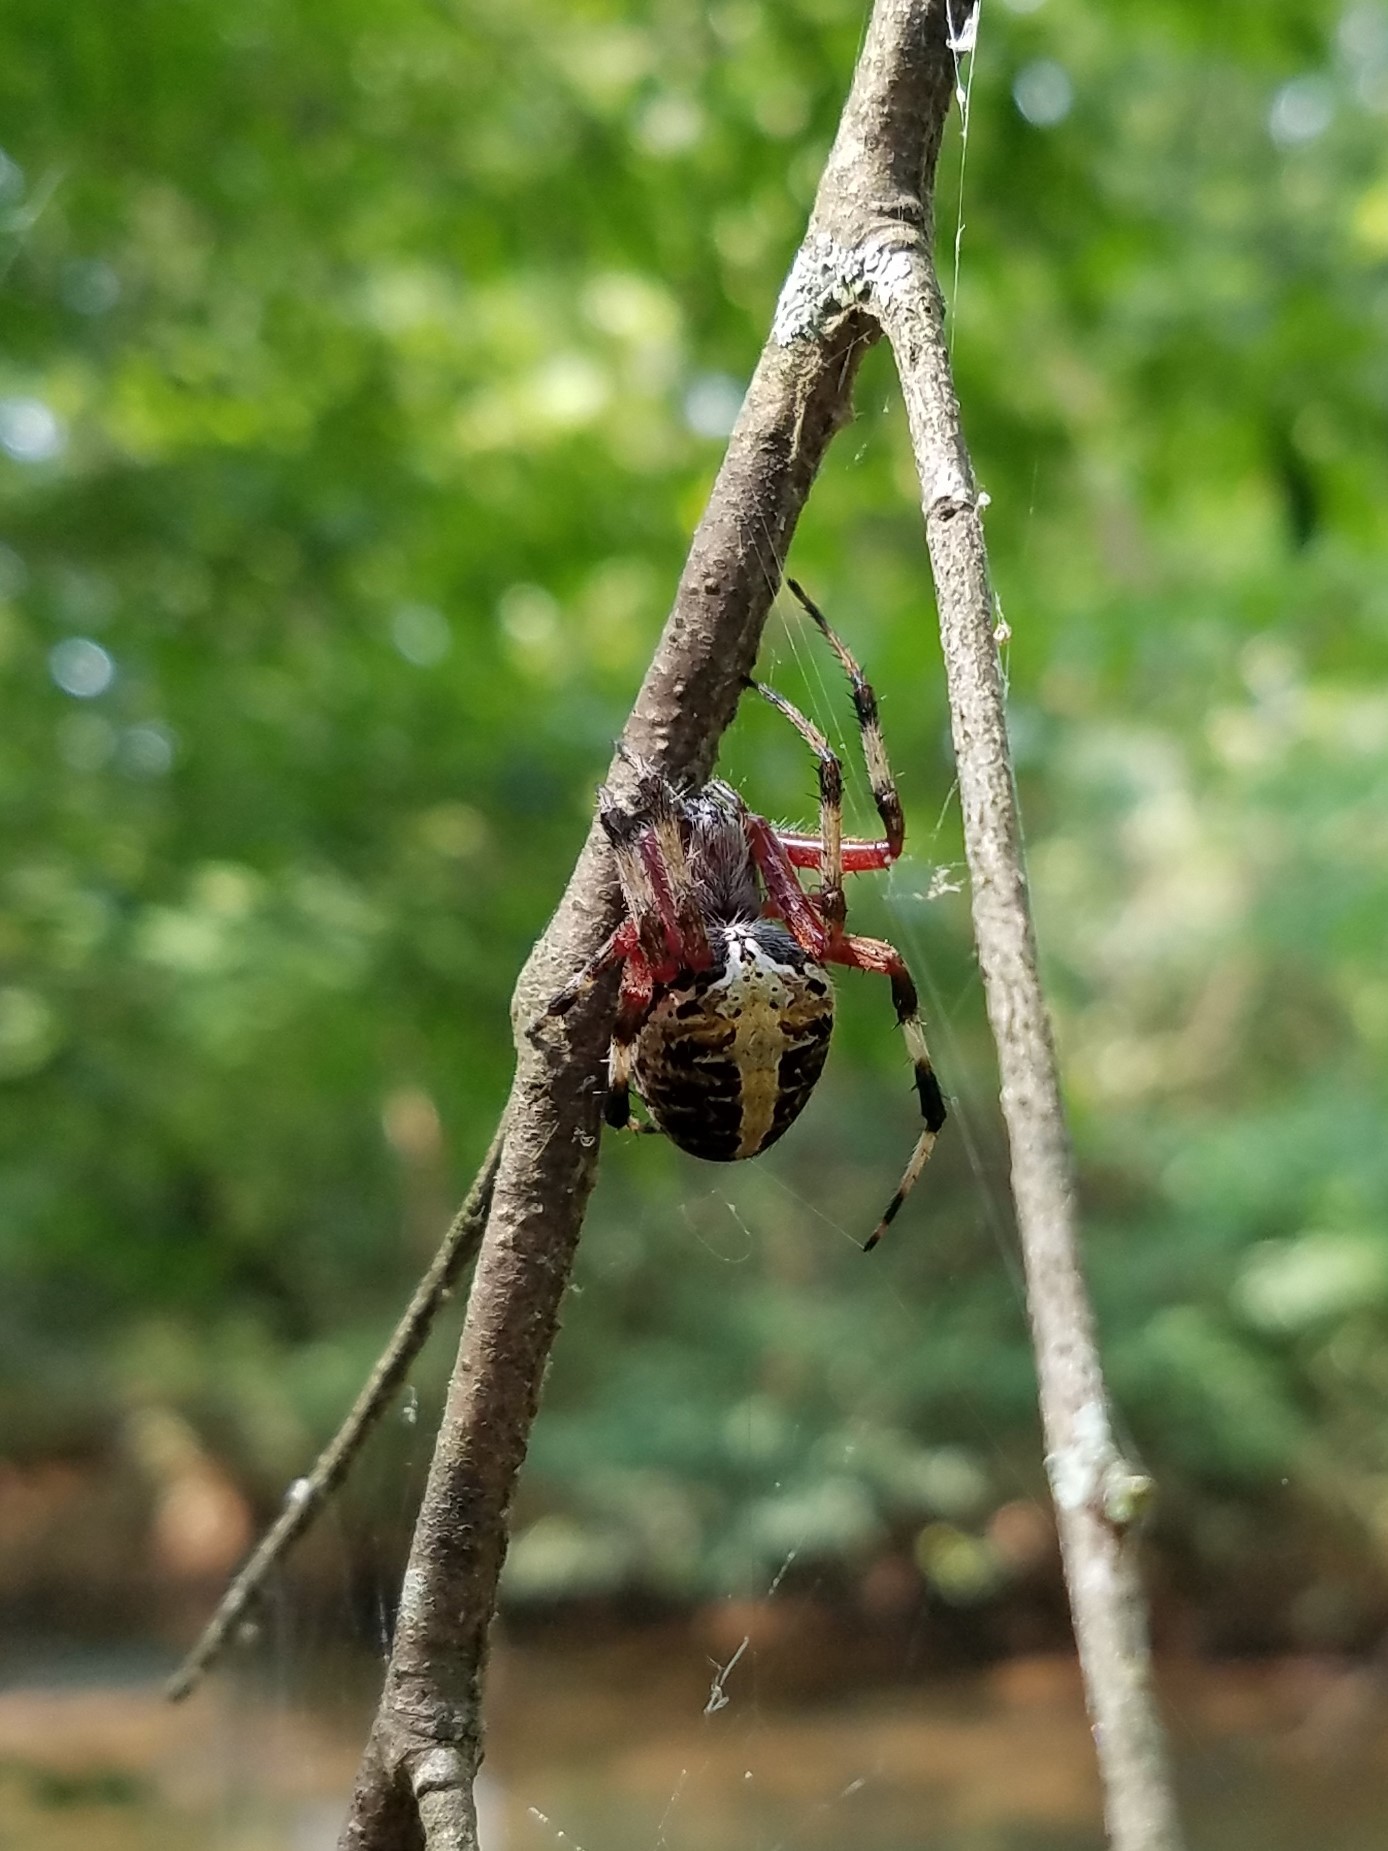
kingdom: Animalia
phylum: Arthropoda
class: Arachnida
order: Araneae
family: Araneidae
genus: Neoscona
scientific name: Neoscona domiciliorum
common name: Red-femured spotted orbweaver
